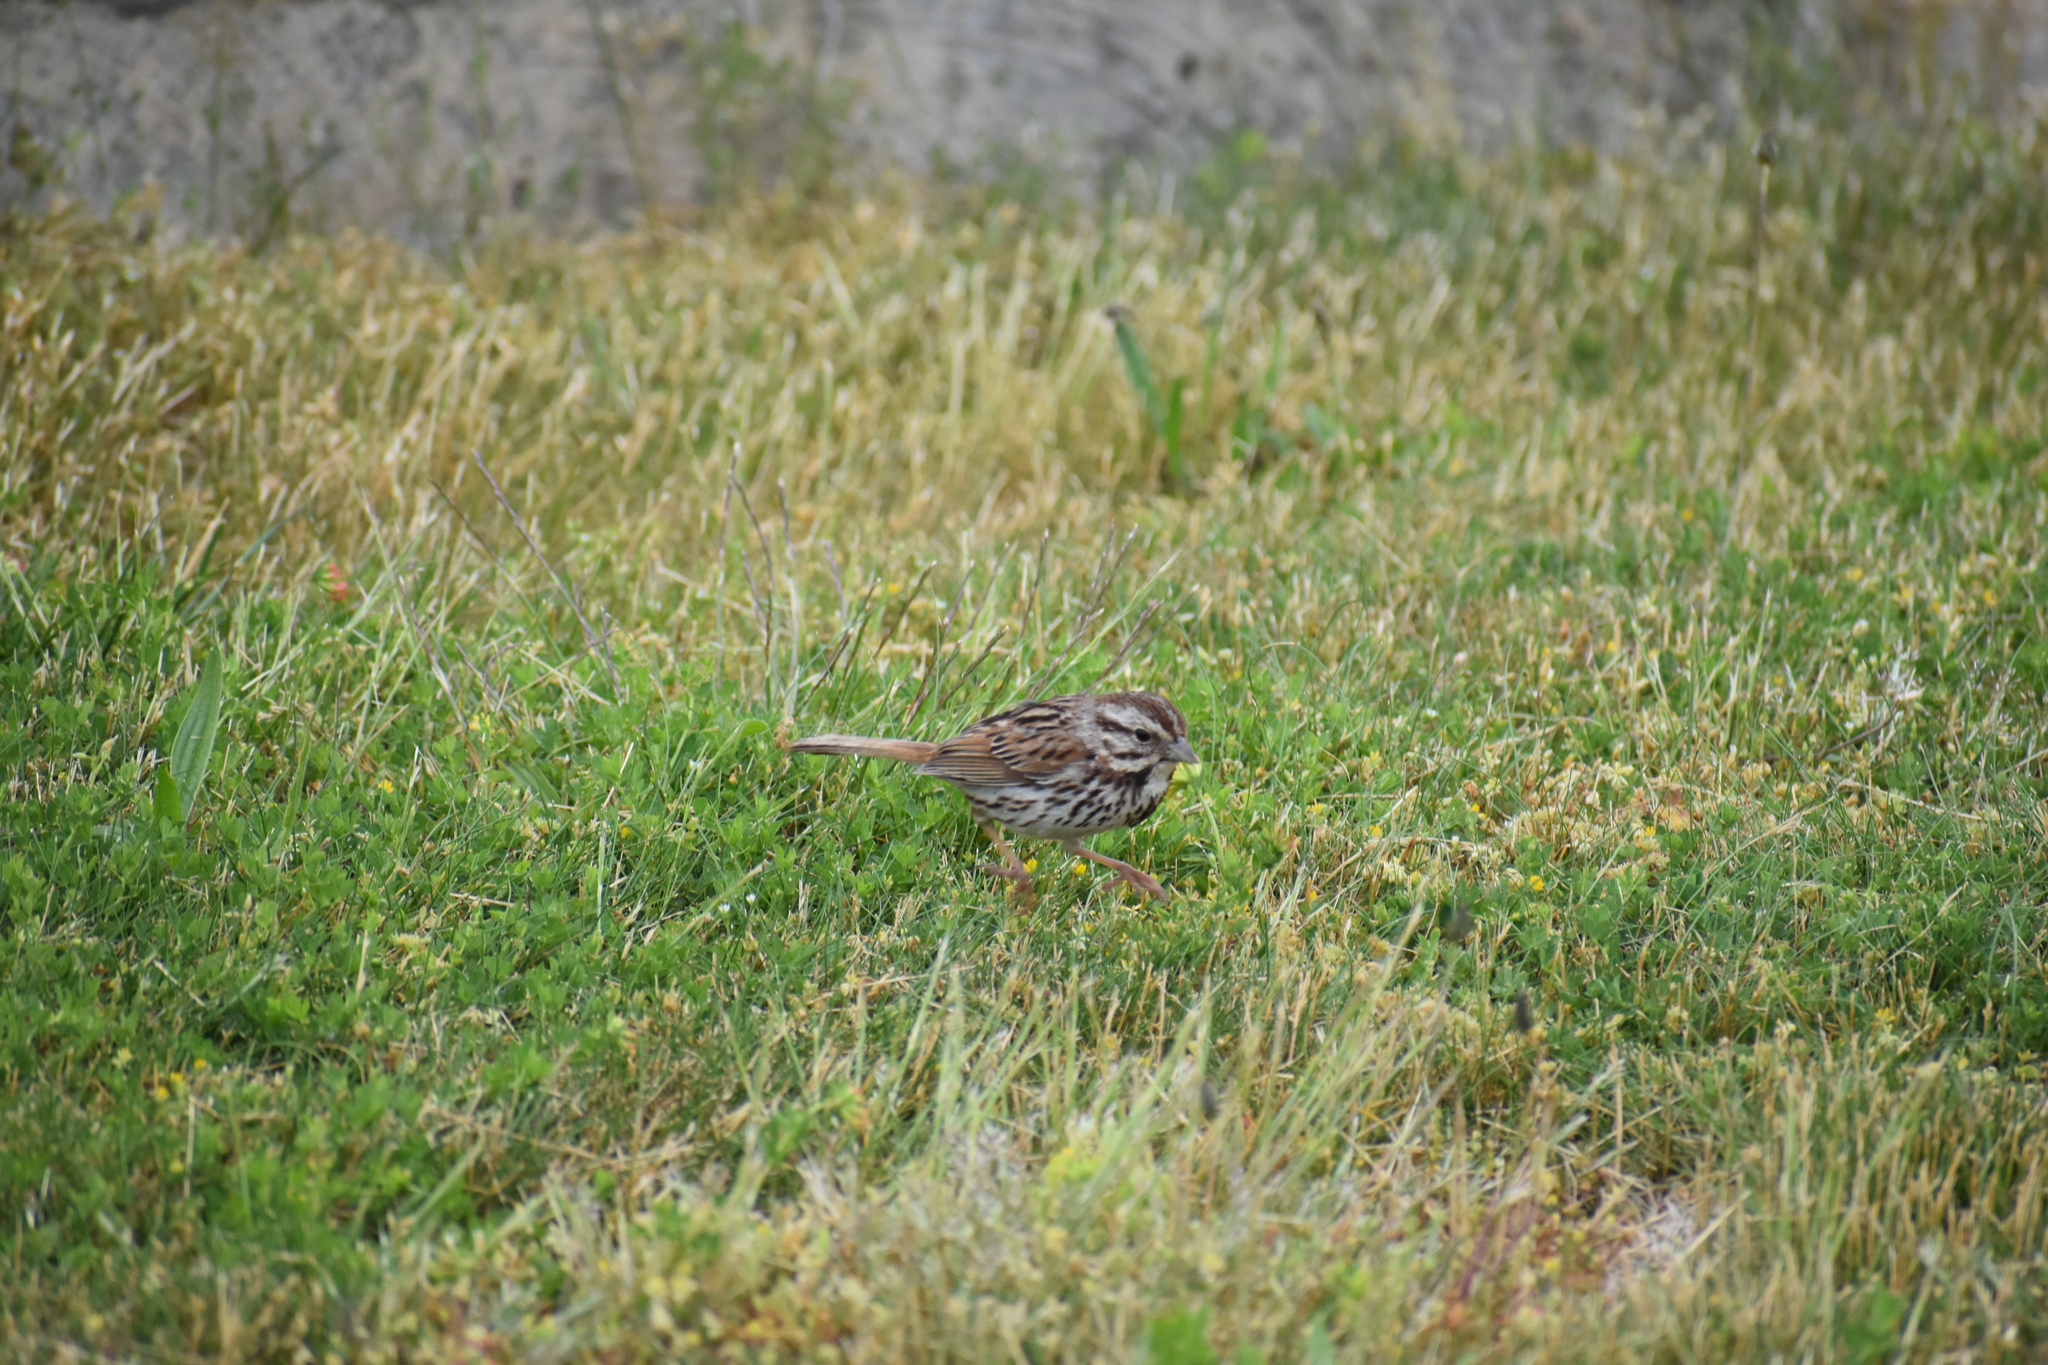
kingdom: Animalia
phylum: Chordata
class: Aves
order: Passeriformes
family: Passerellidae
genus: Melospiza
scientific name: Melospiza melodia
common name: Song sparrow
